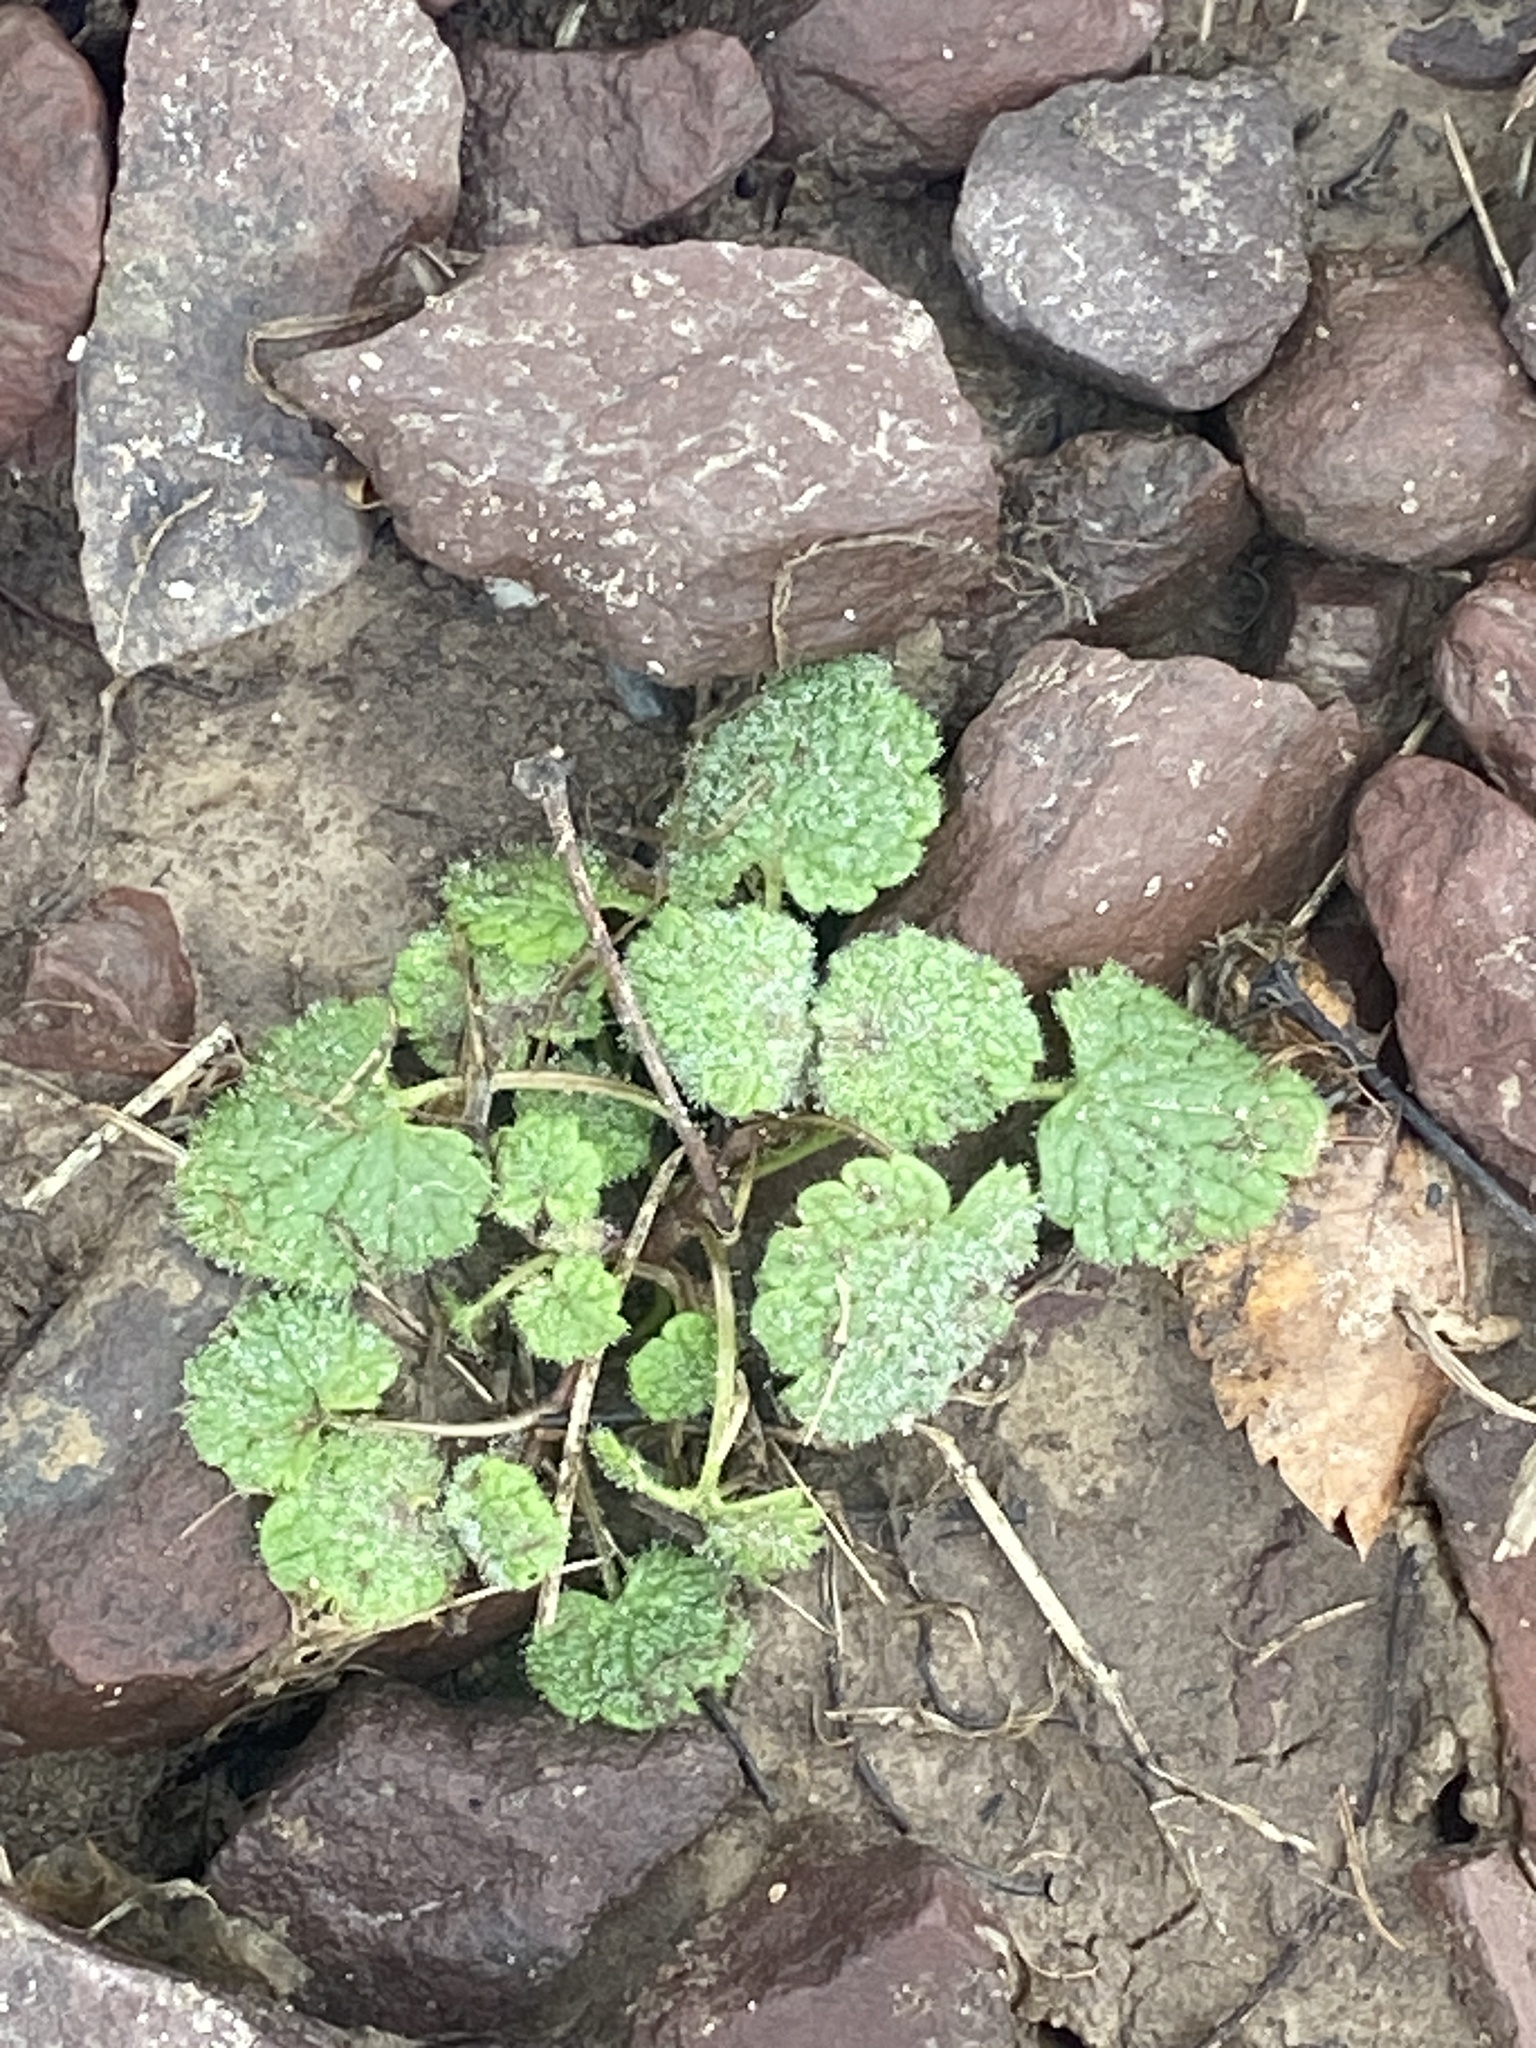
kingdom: Plantae
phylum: Tracheophyta
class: Magnoliopsida
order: Lamiales
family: Lamiaceae
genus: Lamium
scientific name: Lamium purpureum
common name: Red dead-nettle
